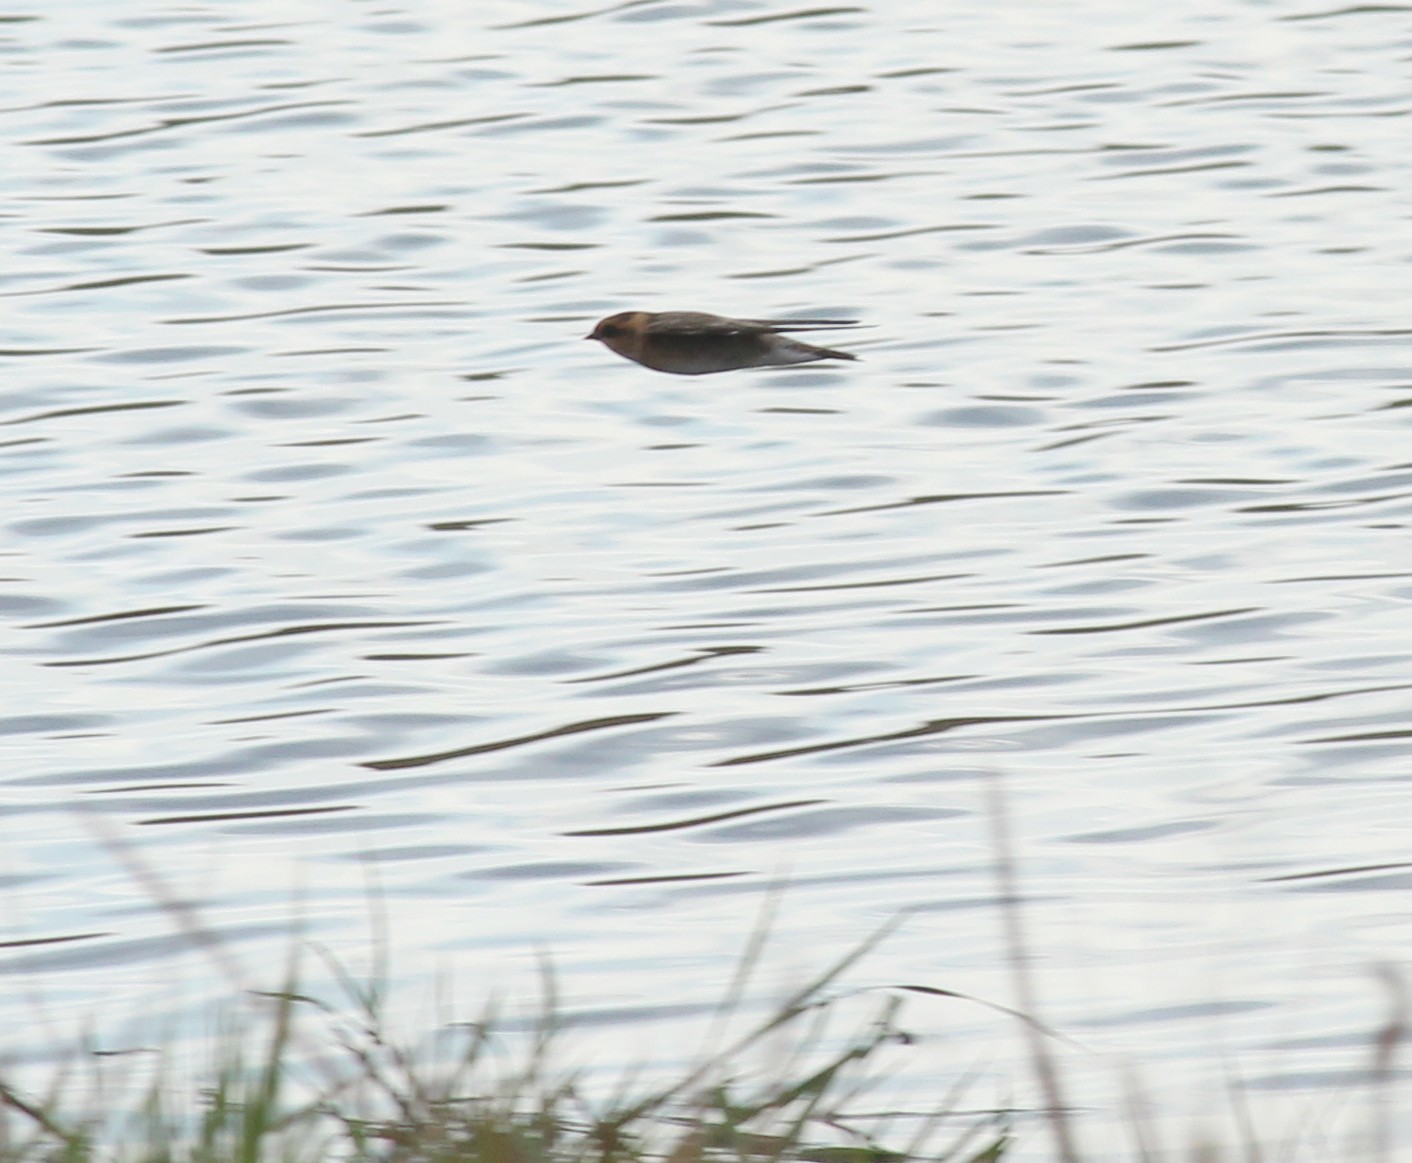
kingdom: Animalia
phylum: Chordata
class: Aves
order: Passeriformes
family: Hirundinidae
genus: Alopochelidon
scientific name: Alopochelidon fucata
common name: Tawny-headed swallow
